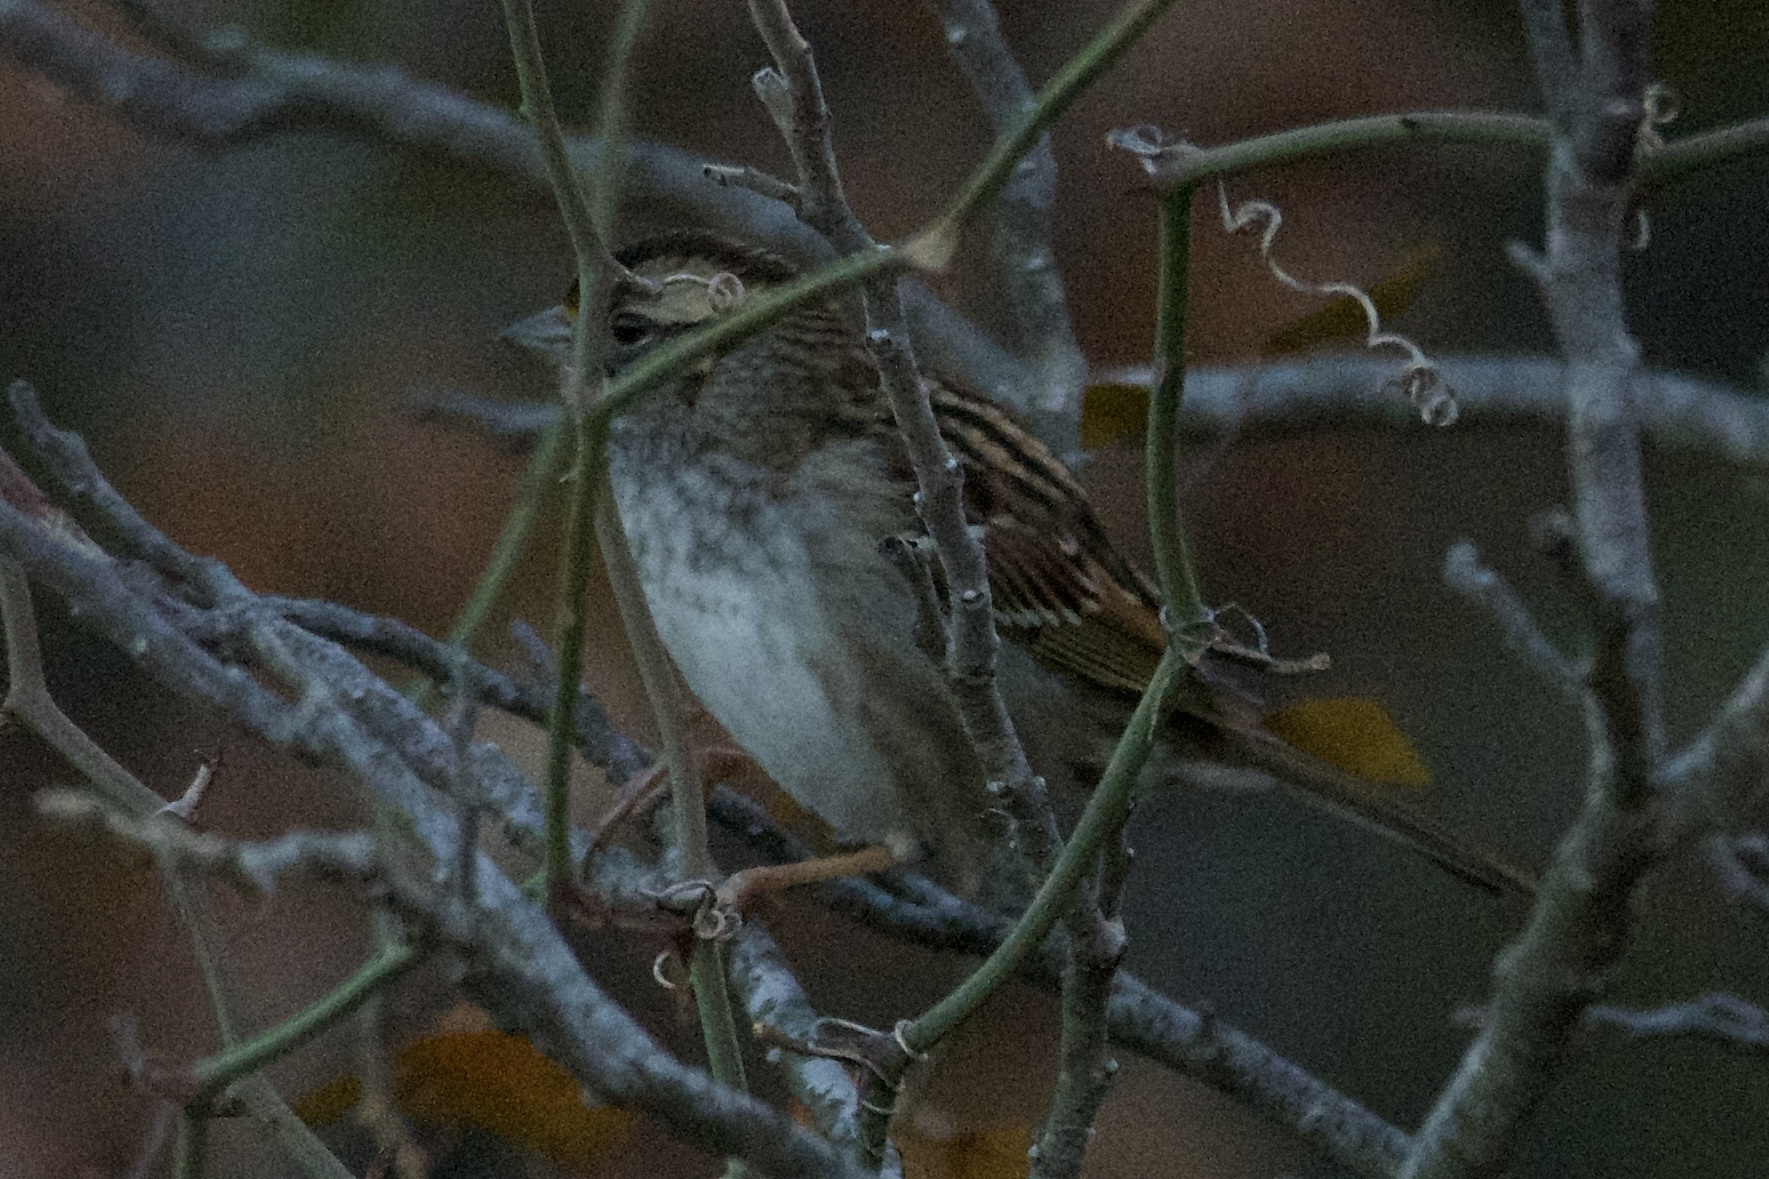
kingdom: Animalia
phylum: Chordata
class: Aves
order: Passeriformes
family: Passerellidae
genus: Zonotrichia
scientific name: Zonotrichia albicollis
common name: White-throated sparrow
